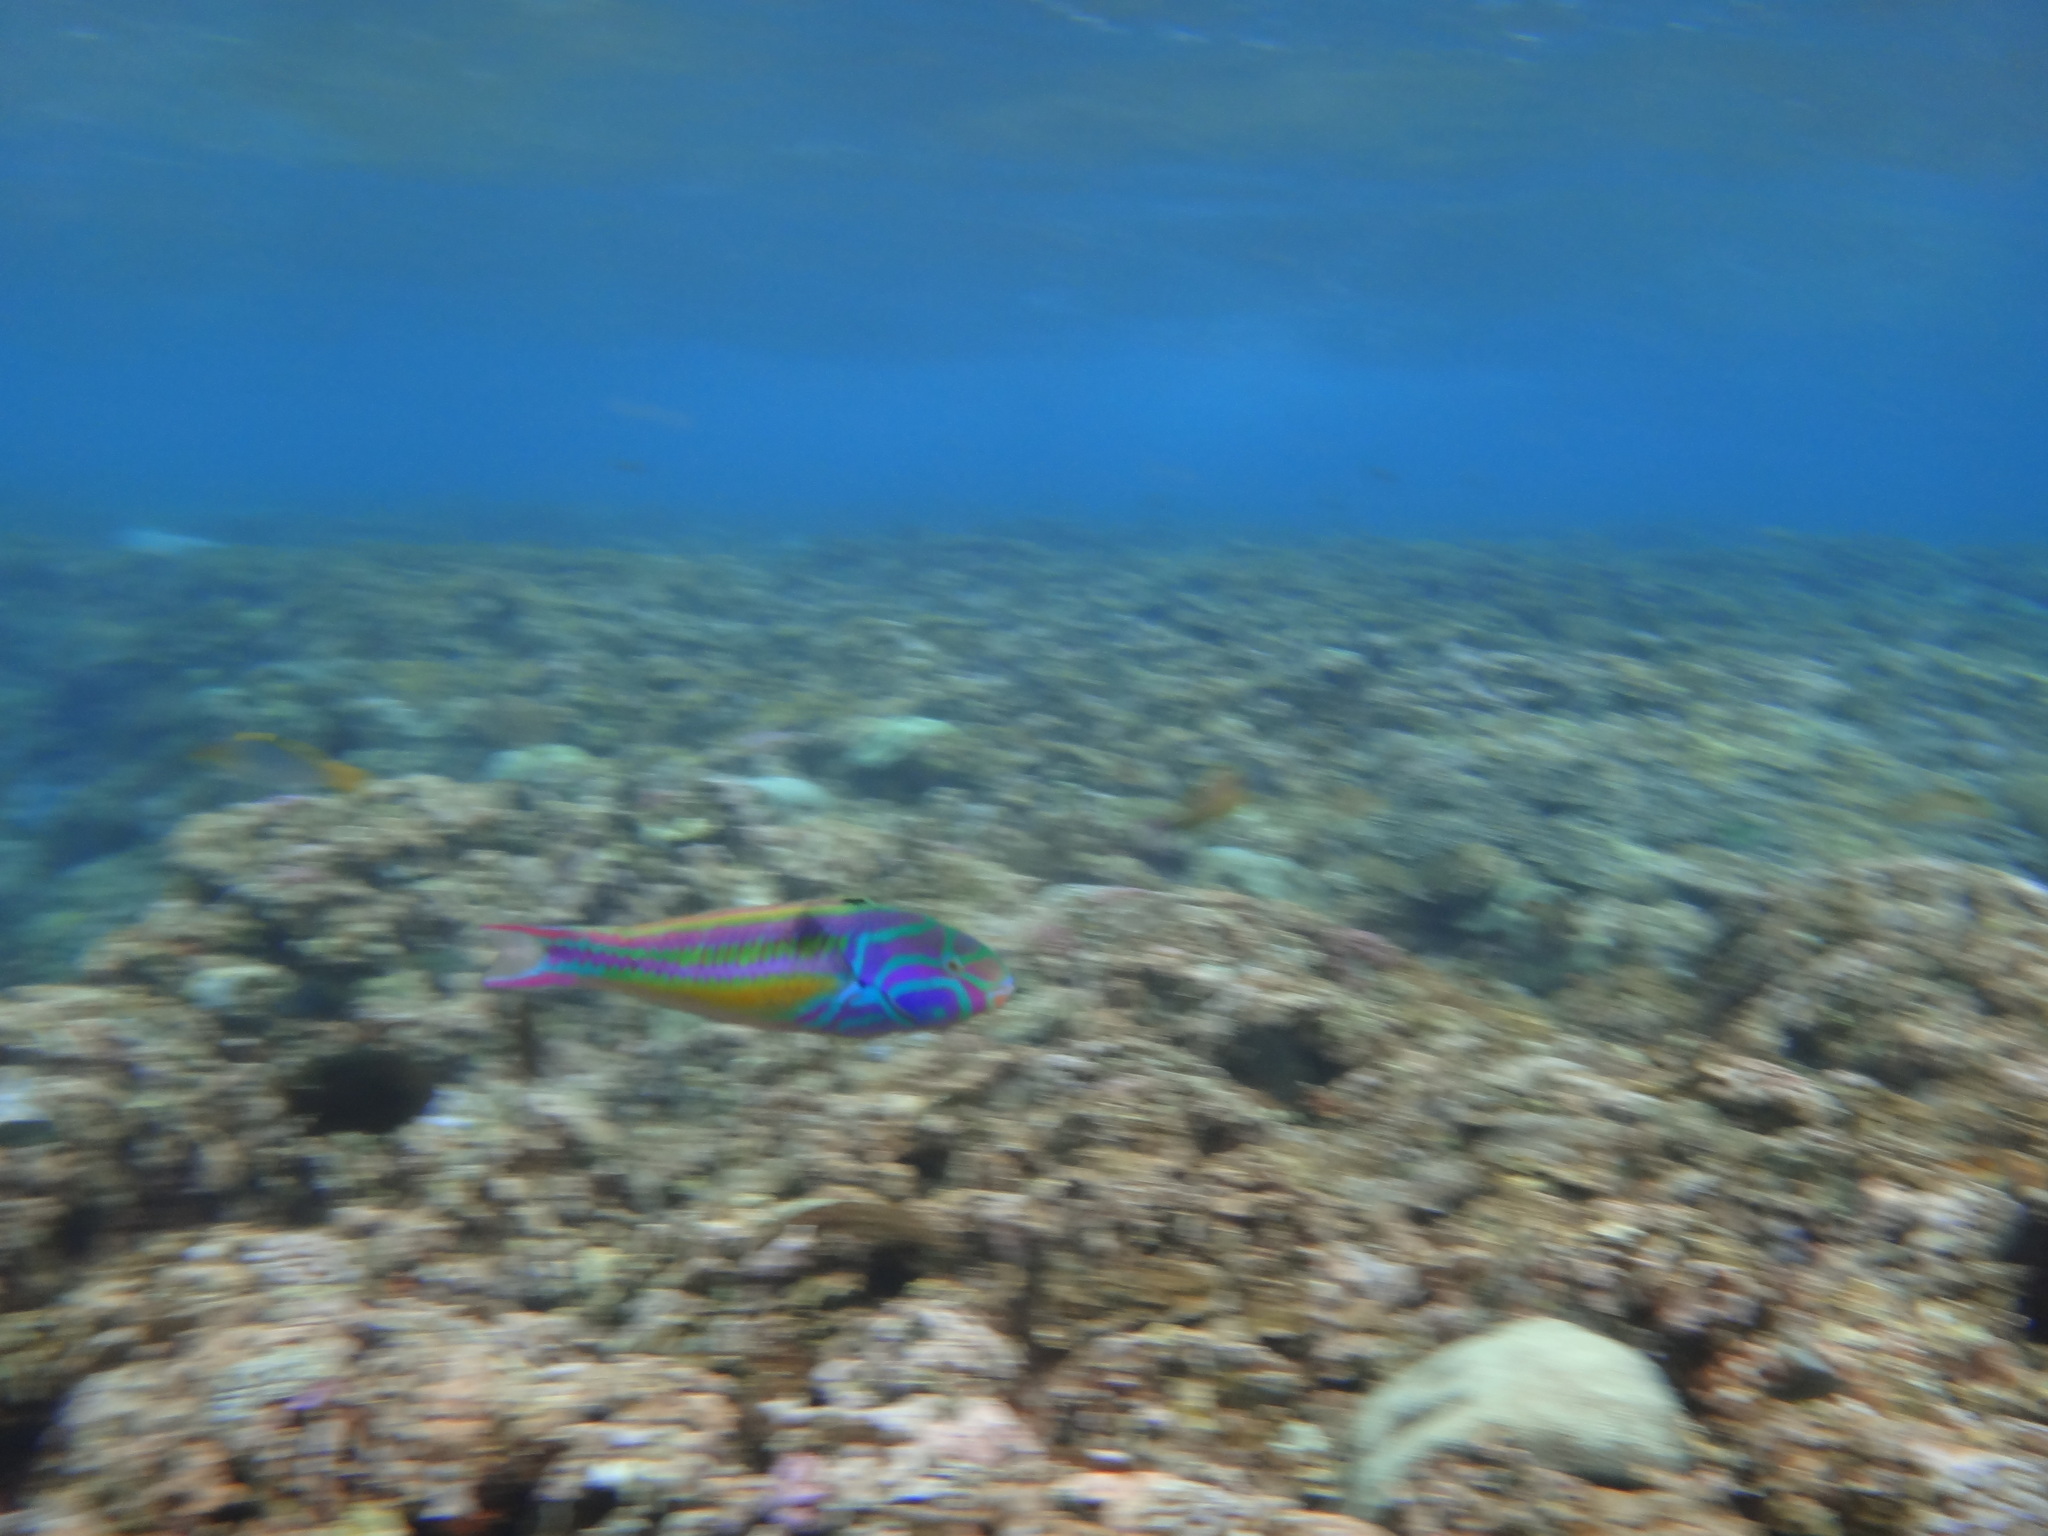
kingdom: Animalia
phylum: Chordata
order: Perciformes
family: Labridae
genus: Thalassoma
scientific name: Thalassoma quinquevittatum
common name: Five striped surge wrasse
